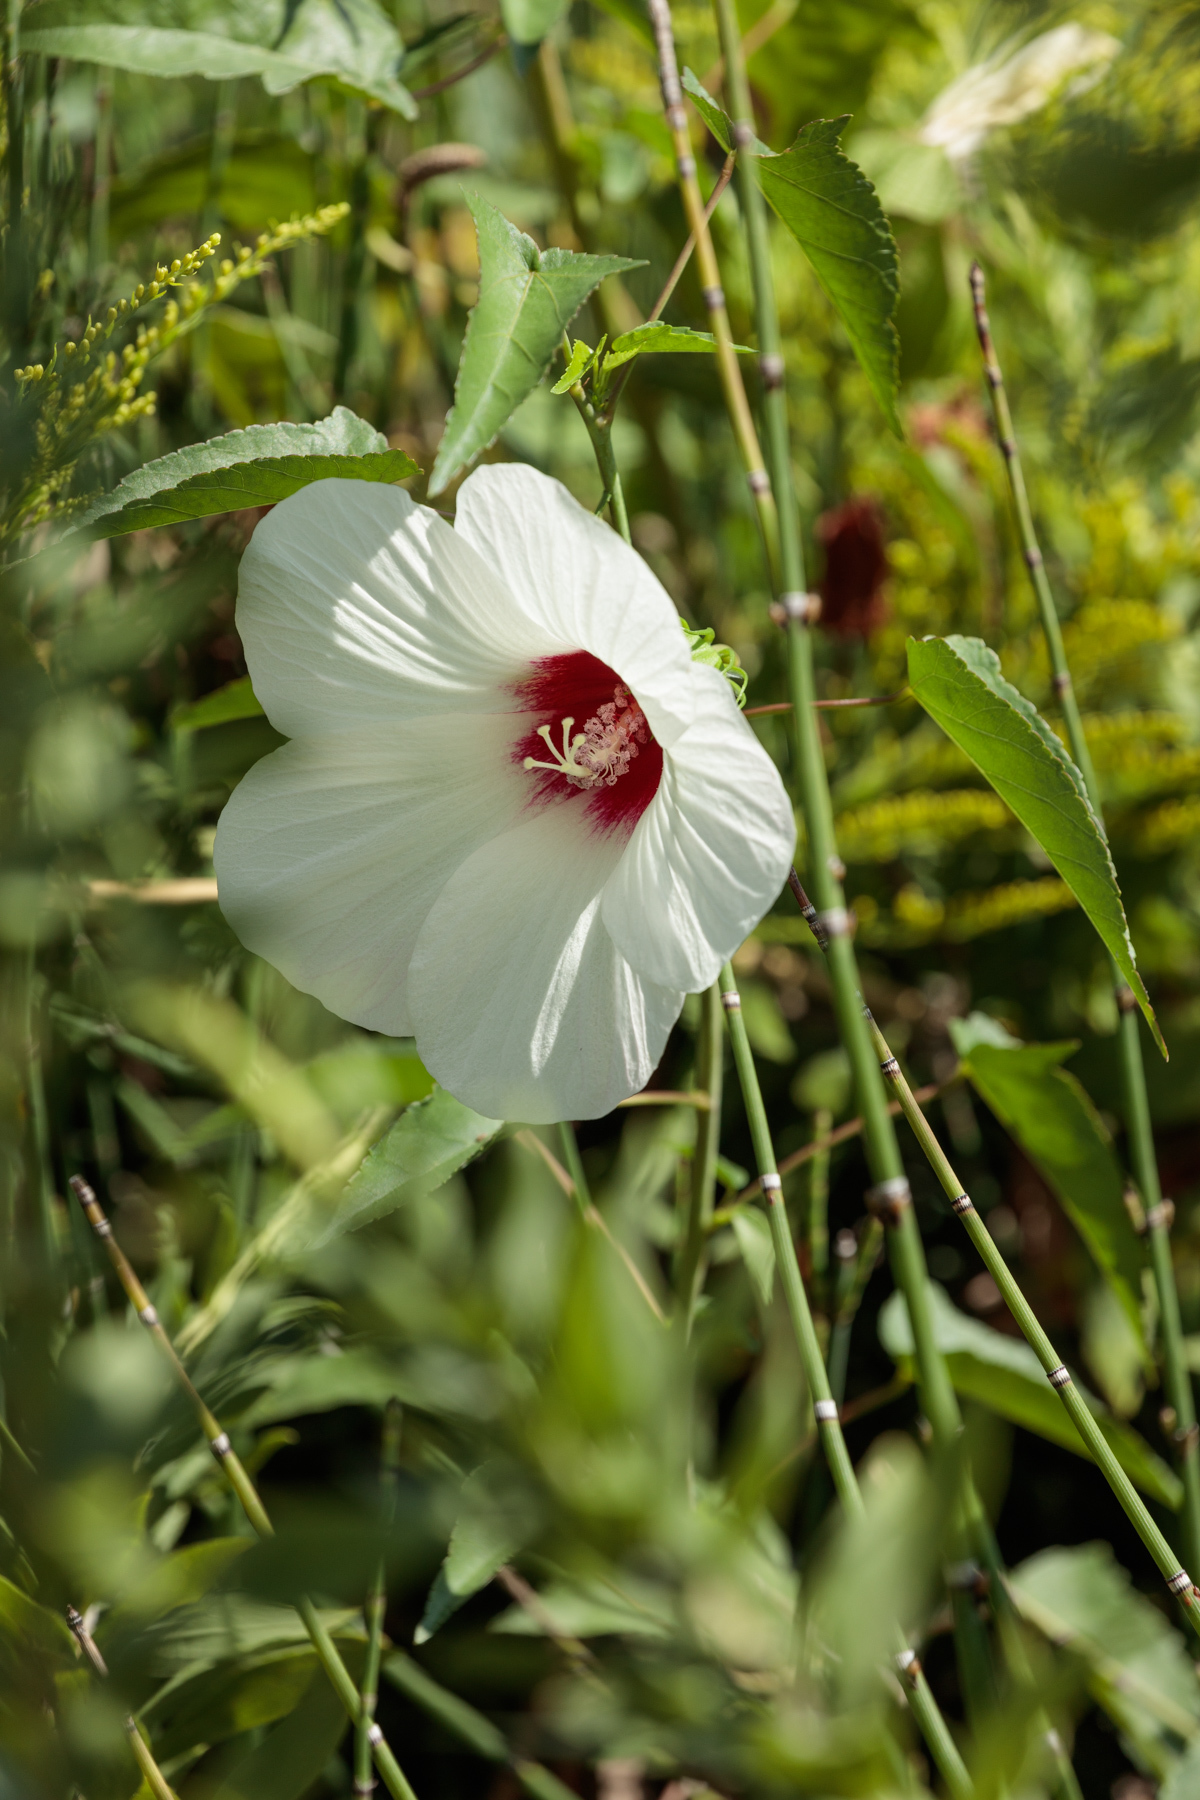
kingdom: Plantae
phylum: Tracheophyta
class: Magnoliopsida
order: Malvales
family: Malvaceae
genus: Hibiscus
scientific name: Hibiscus laevis
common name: Scarlet rose-mallow
